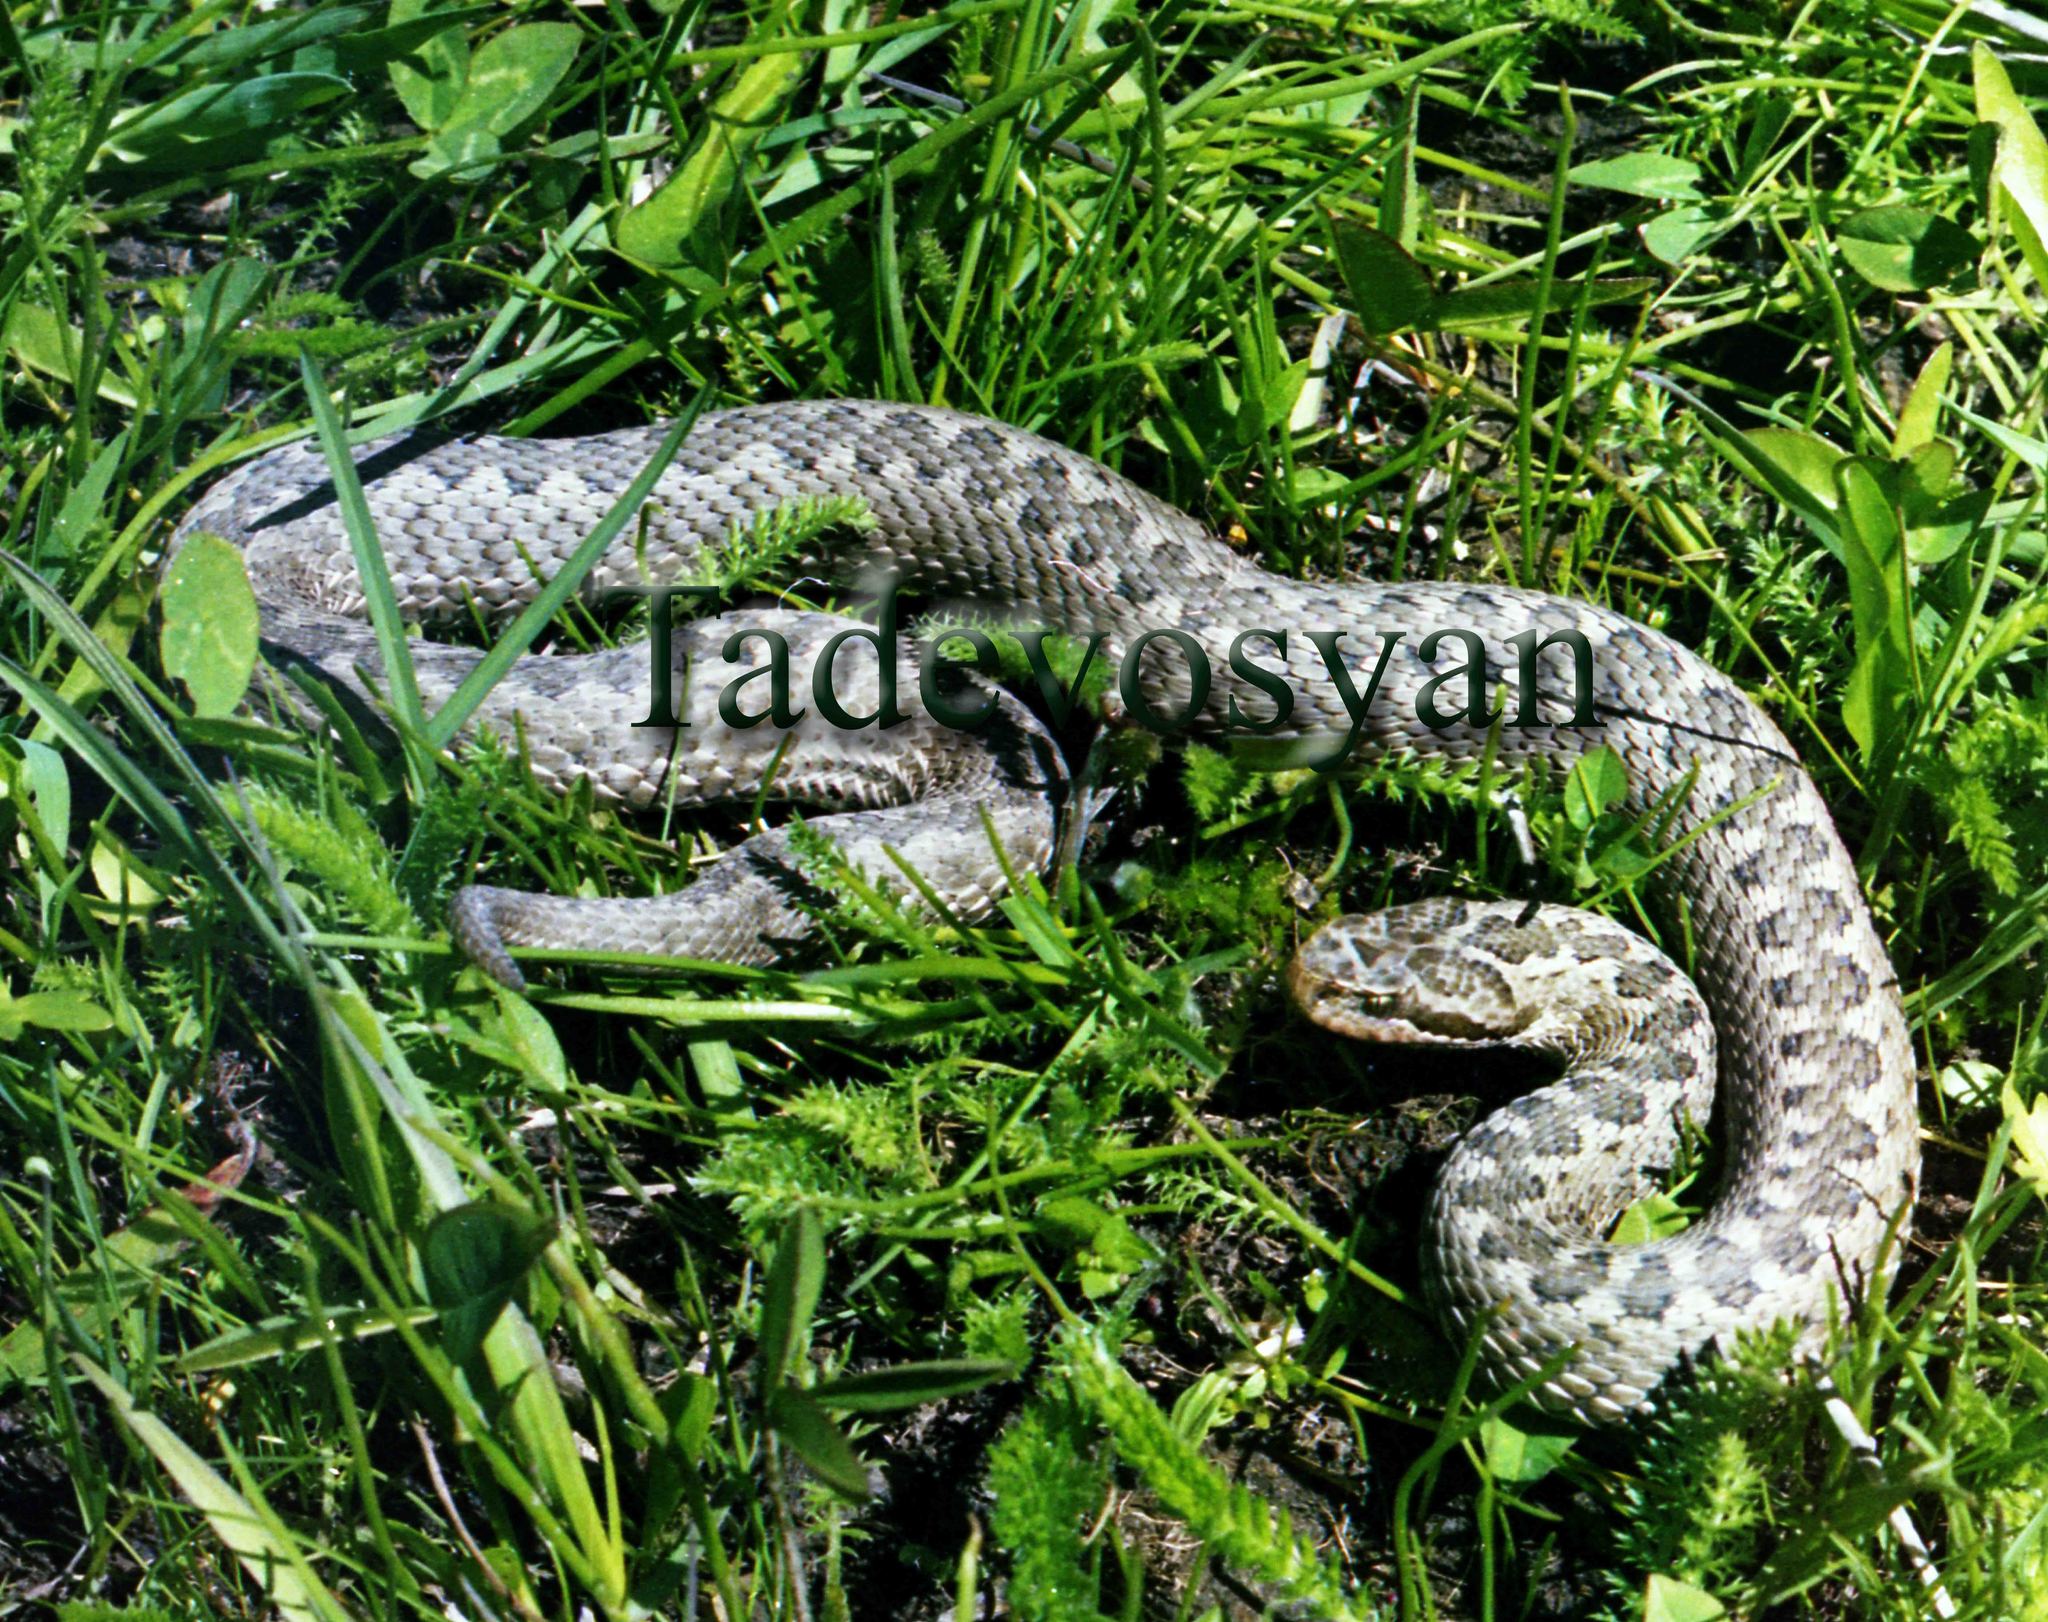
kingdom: Animalia
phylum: Chordata
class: Squamata
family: Viperidae
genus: Vipera
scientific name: Vipera eriwanensis
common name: Alburzi viper
